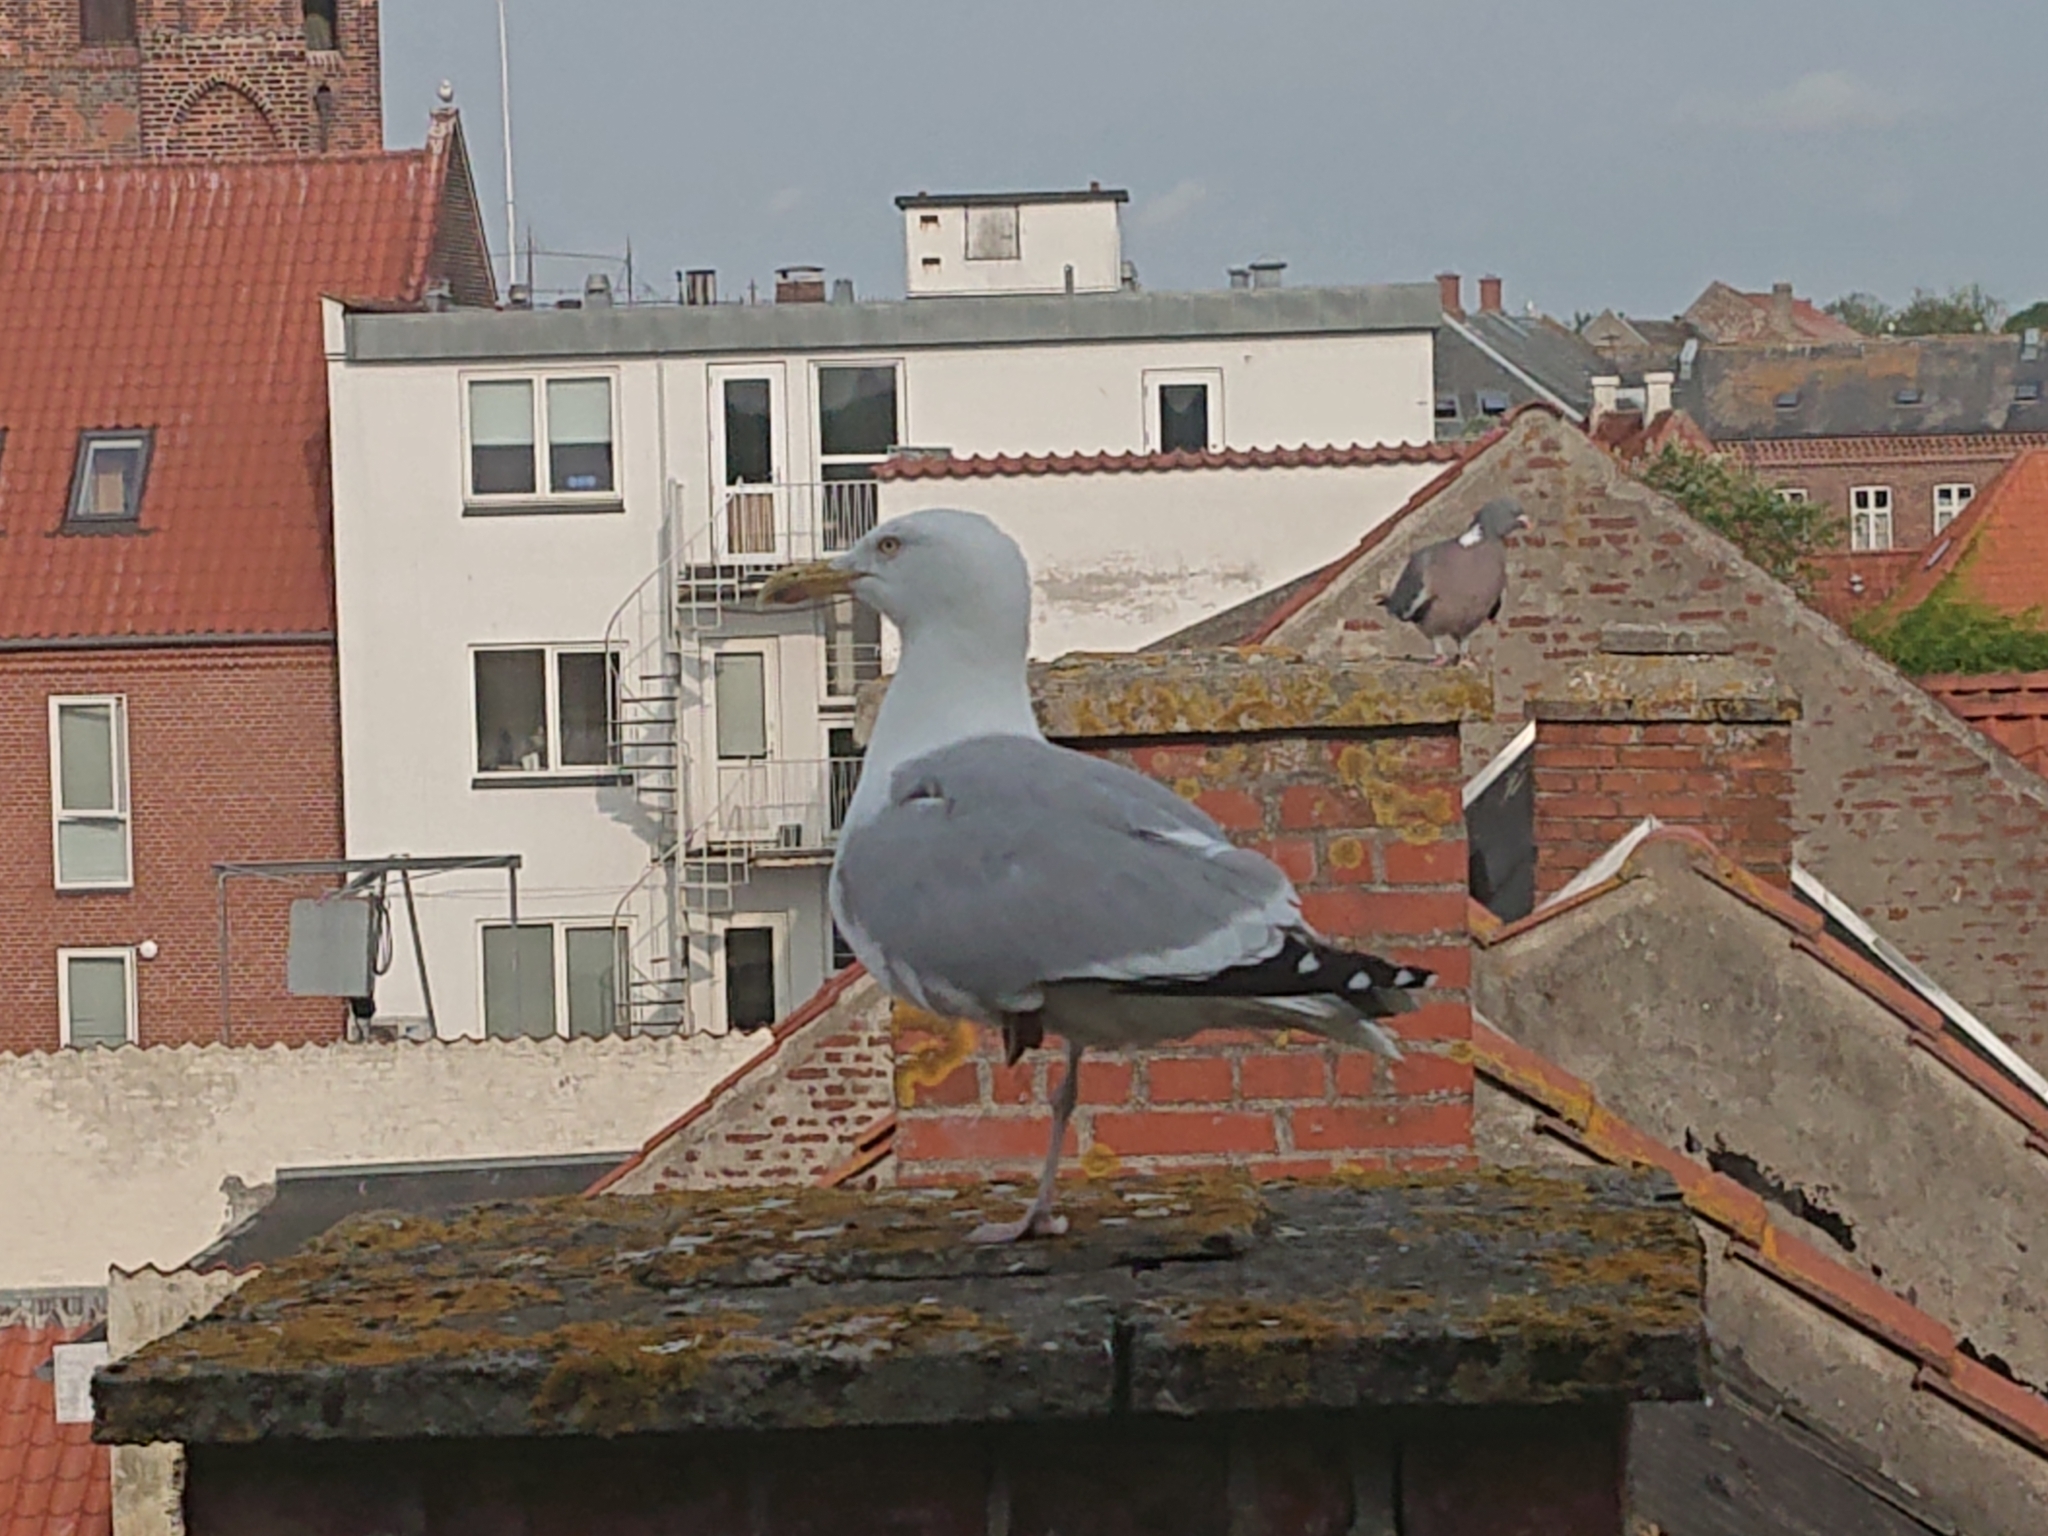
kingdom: Animalia
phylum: Chordata
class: Aves
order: Charadriiformes
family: Laridae
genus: Larus
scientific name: Larus argentatus
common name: Herring gull
